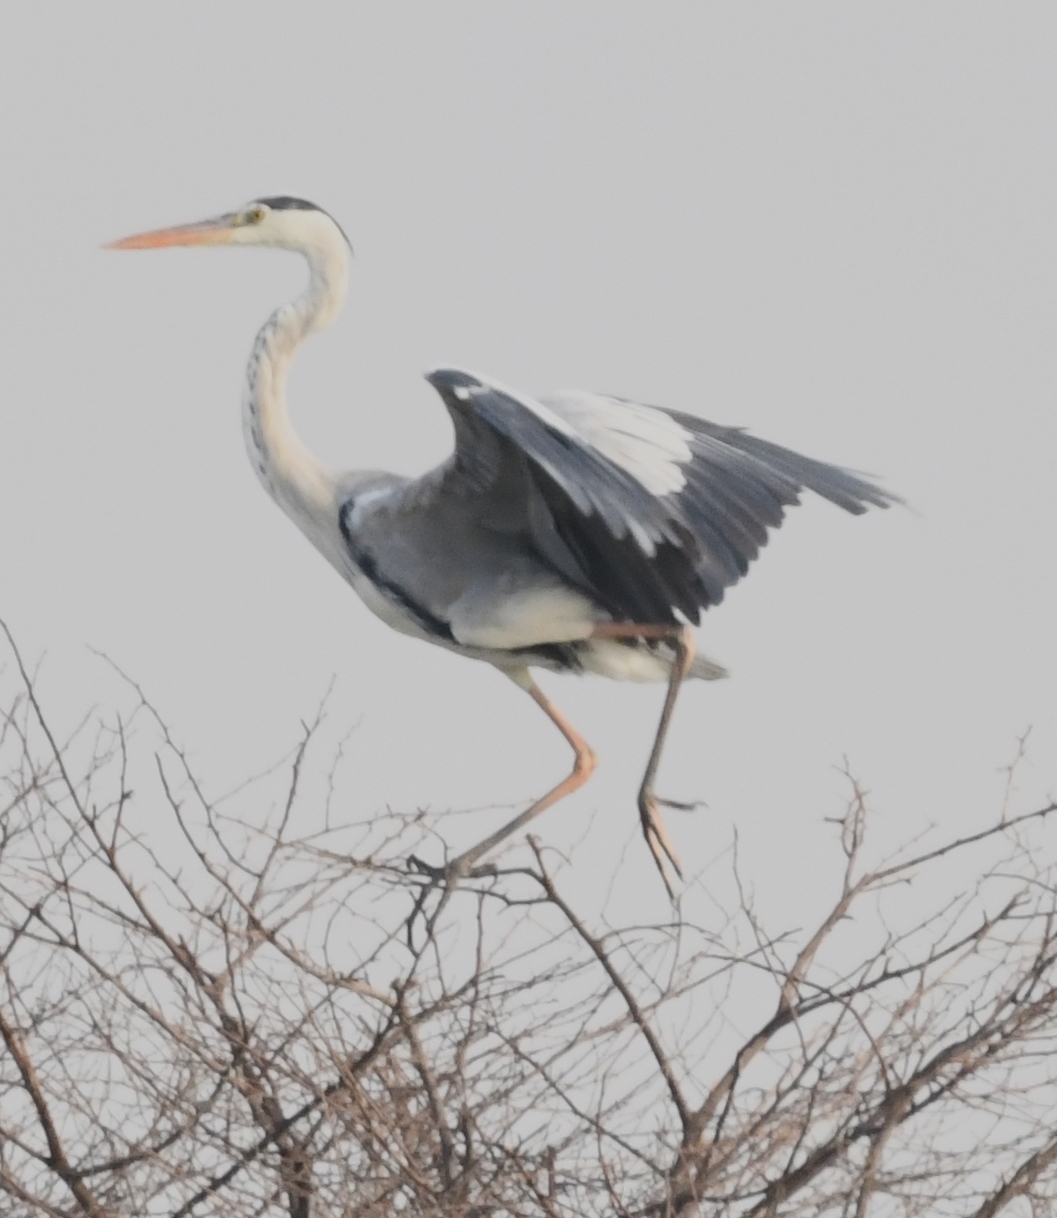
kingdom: Animalia
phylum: Chordata
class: Aves
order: Pelecaniformes
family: Ardeidae
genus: Ardea
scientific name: Ardea cinerea
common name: Grey heron
